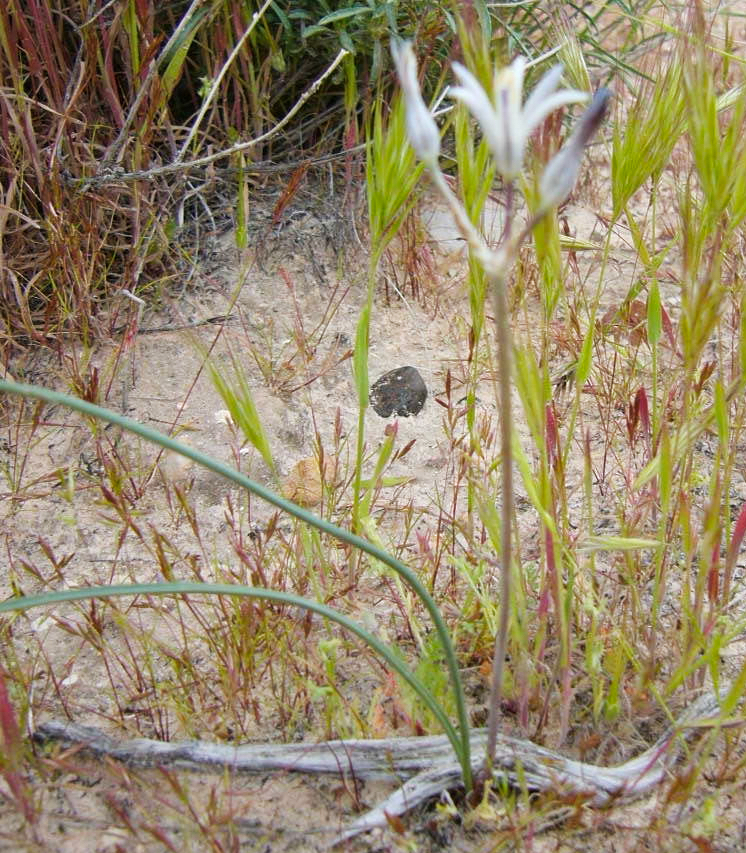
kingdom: Plantae
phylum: Tracheophyta
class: Liliopsida
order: Asparagales
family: Asparagaceae
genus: Androstephium
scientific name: Androstephium breviflorum
